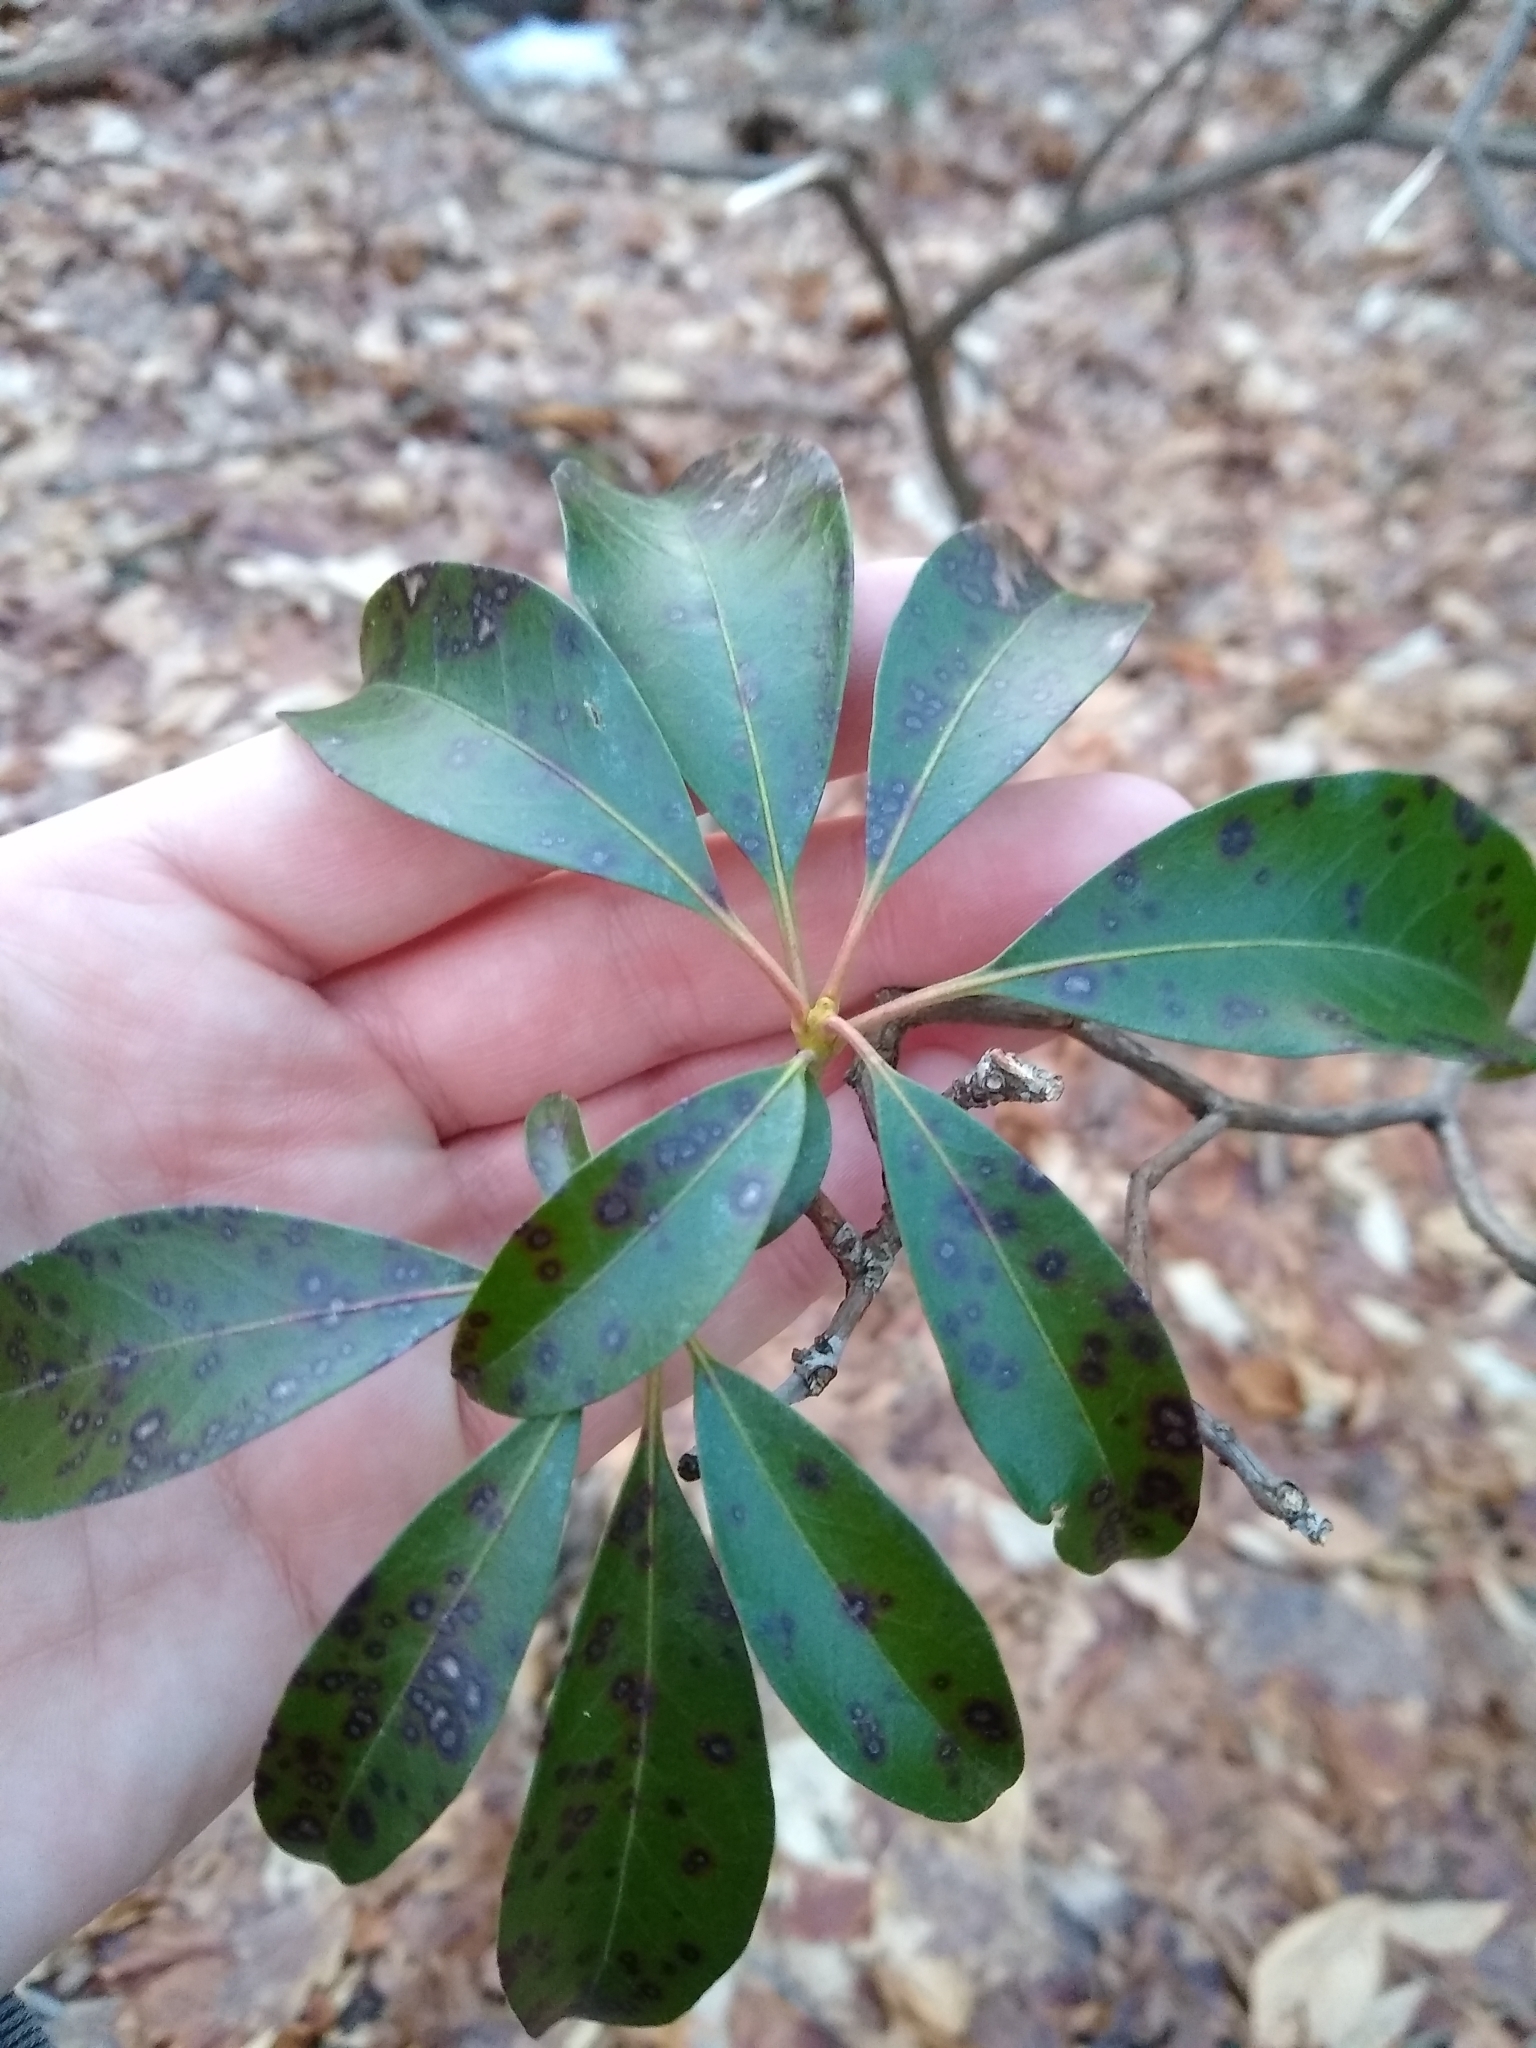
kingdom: Plantae
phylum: Tracheophyta
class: Magnoliopsida
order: Ericales
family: Ericaceae
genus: Kalmia
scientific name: Kalmia latifolia
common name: Mountain-laurel
